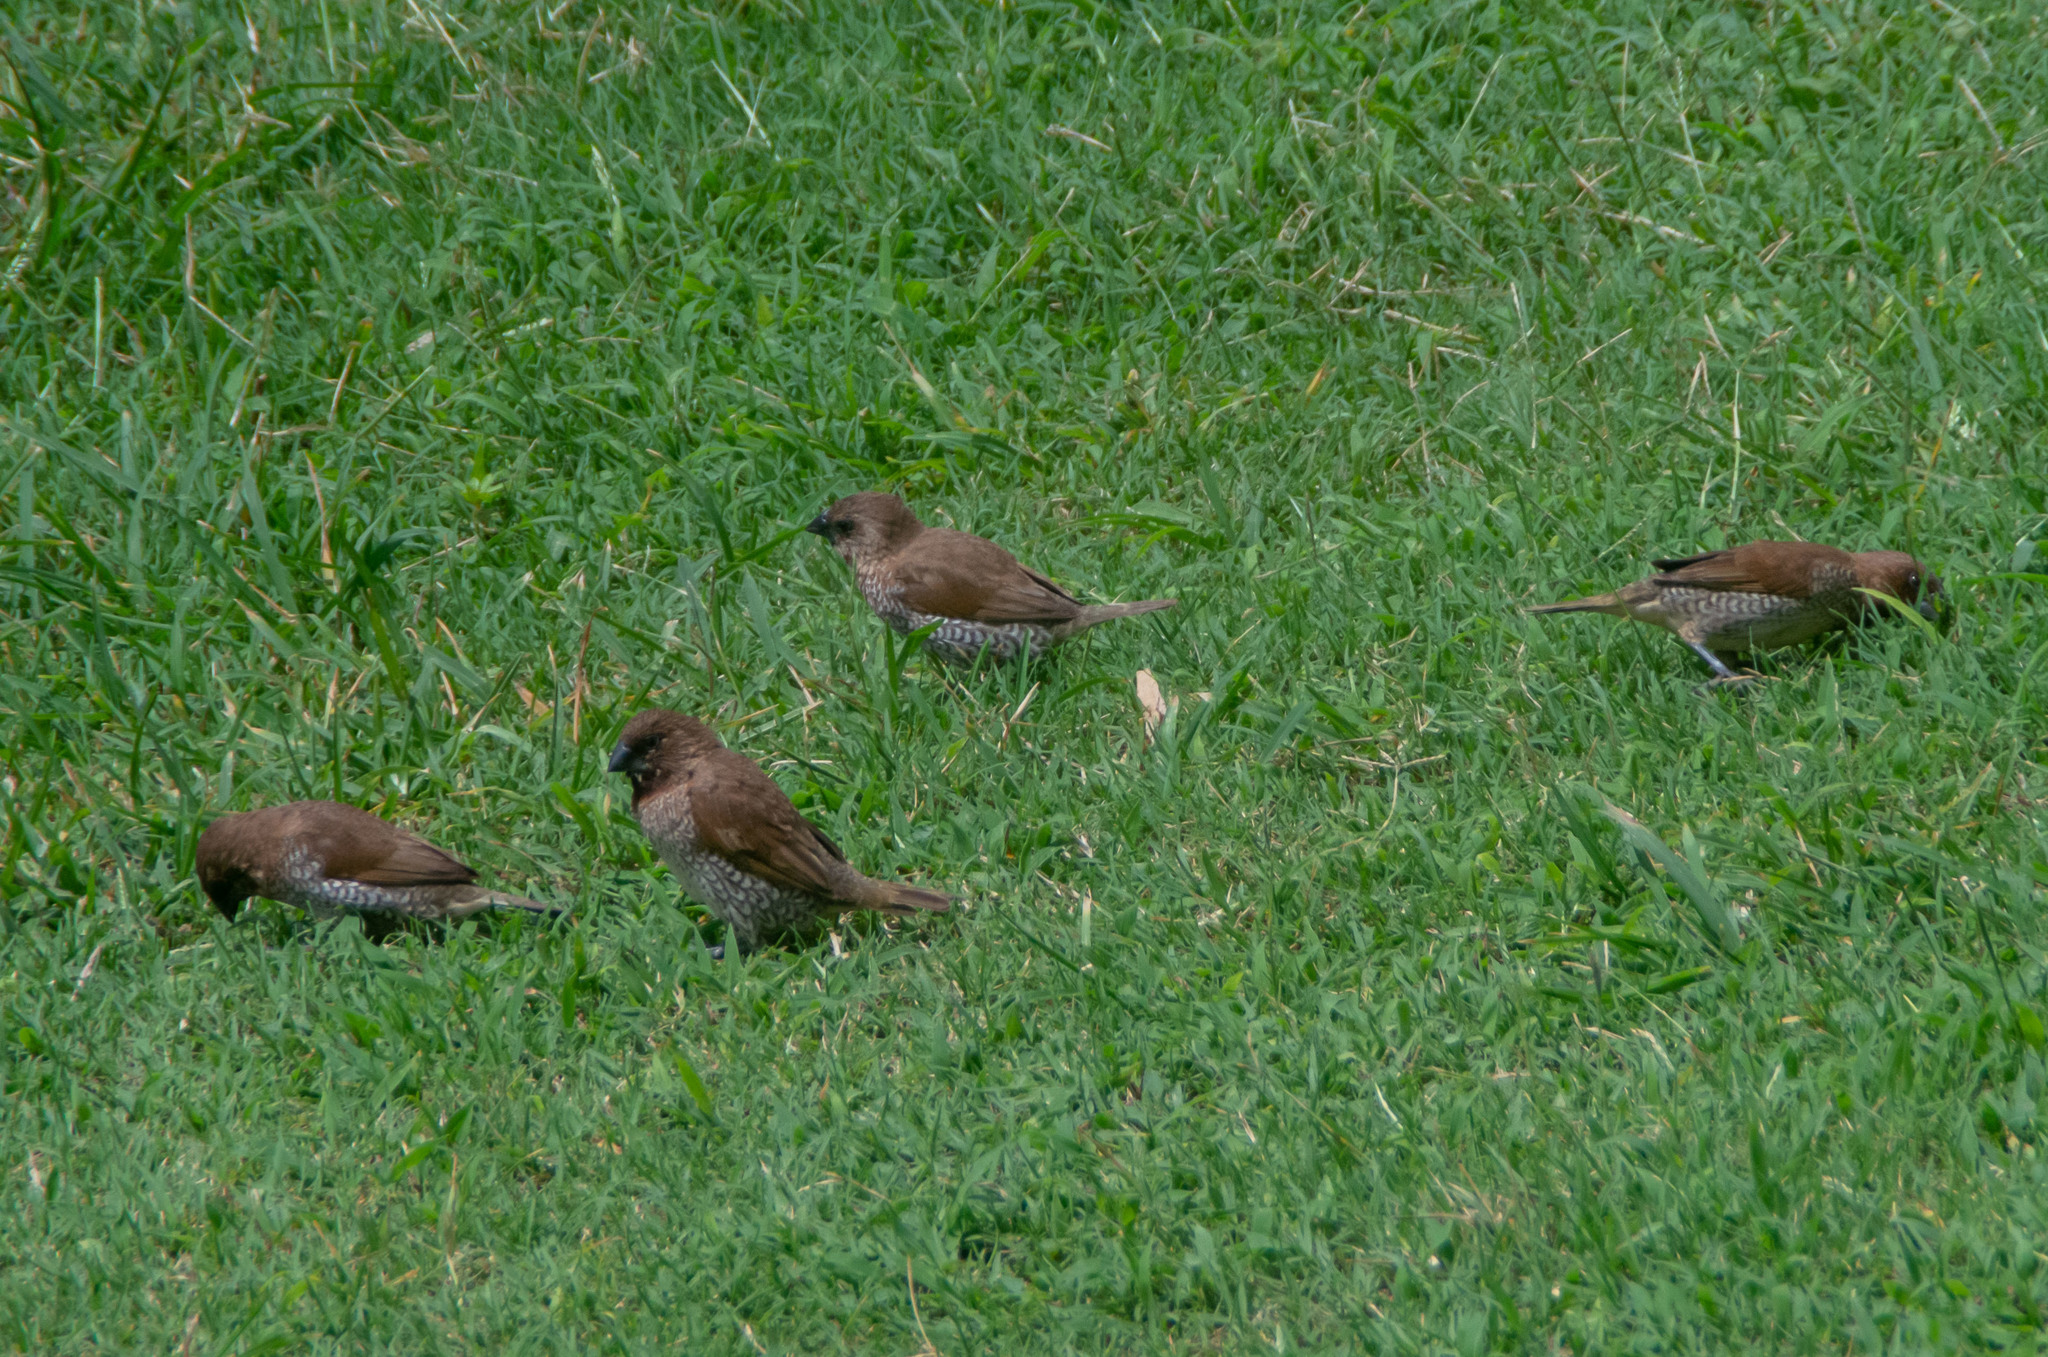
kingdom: Animalia
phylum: Chordata
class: Aves
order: Passeriformes
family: Estrildidae
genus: Lonchura
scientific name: Lonchura punctulata
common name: Scaly-breasted munia
